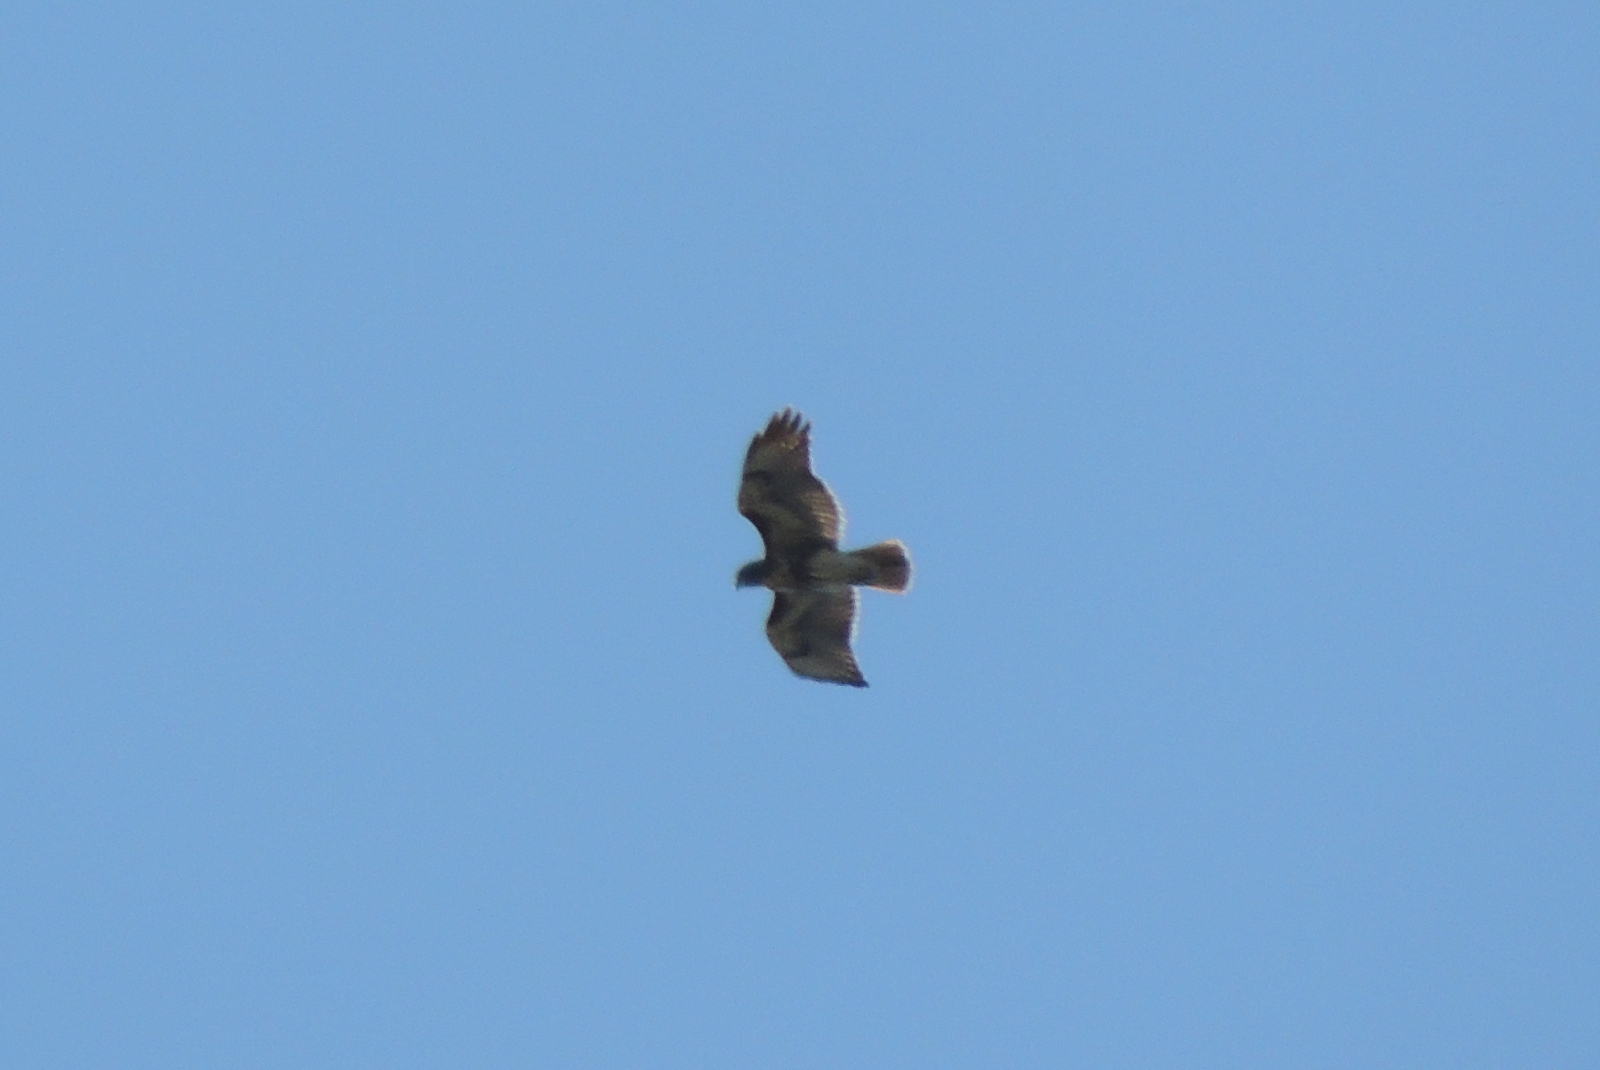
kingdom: Animalia
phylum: Chordata
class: Aves
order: Accipitriformes
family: Accipitridae
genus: Buteo
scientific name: Buteo jamaicensis
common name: Red-tailed hawk
